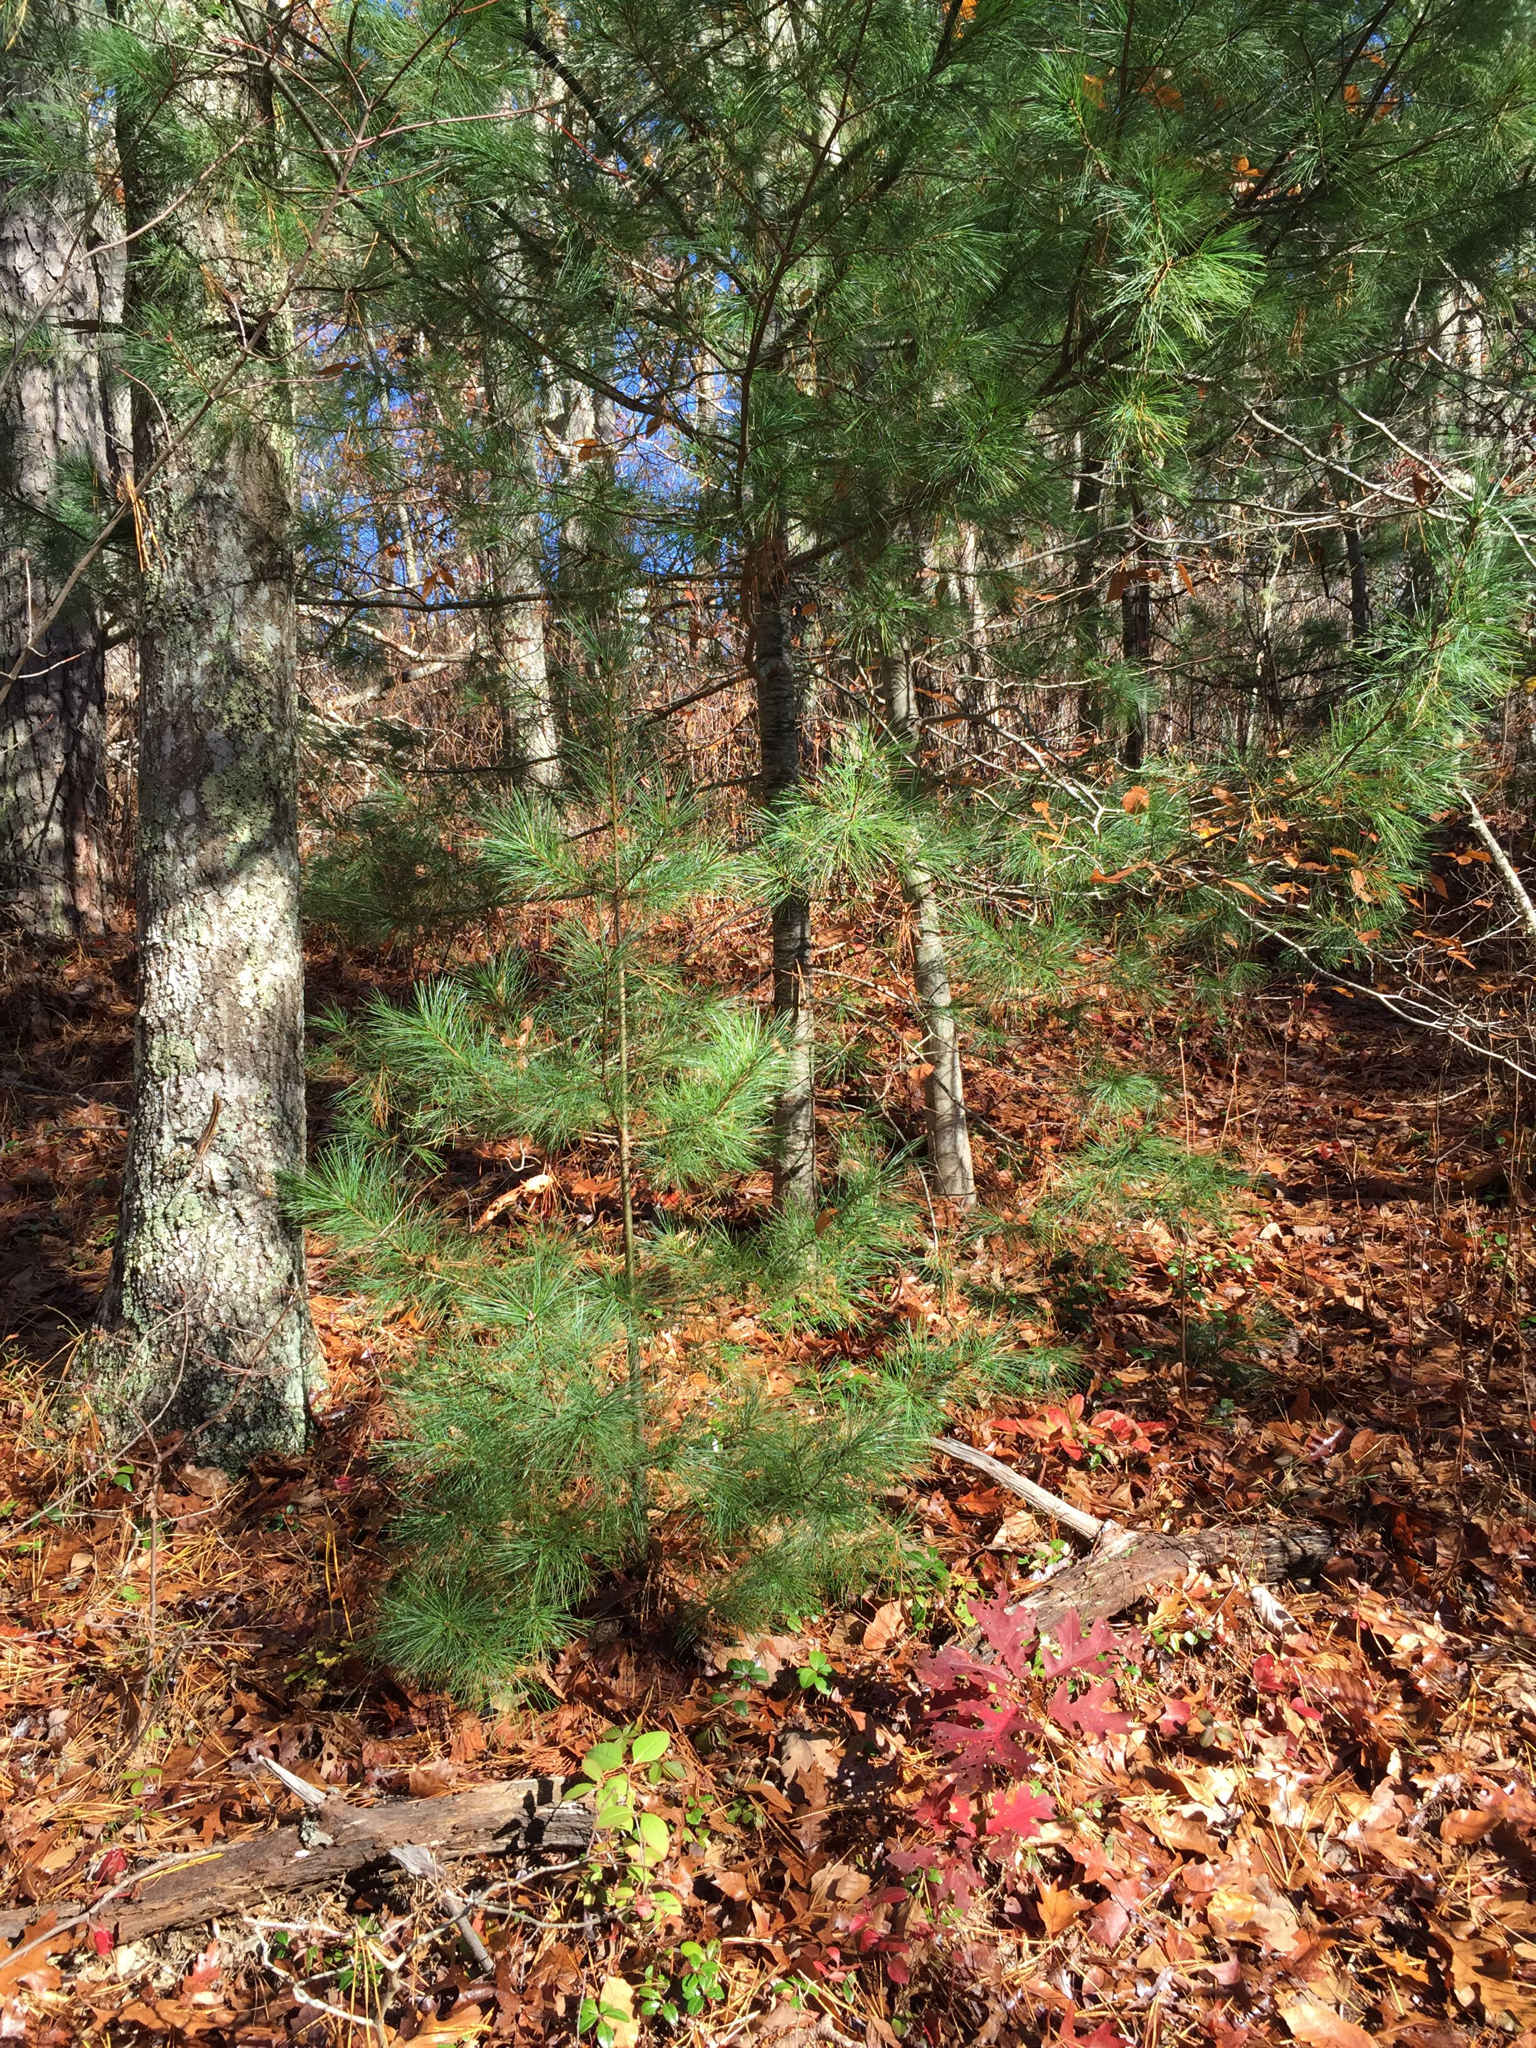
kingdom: Plantae
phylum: Tracheophyta
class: Pinopsida
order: Pinales
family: Pinaceae
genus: Pinus
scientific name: Pinus strobus
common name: Weymouth pine
